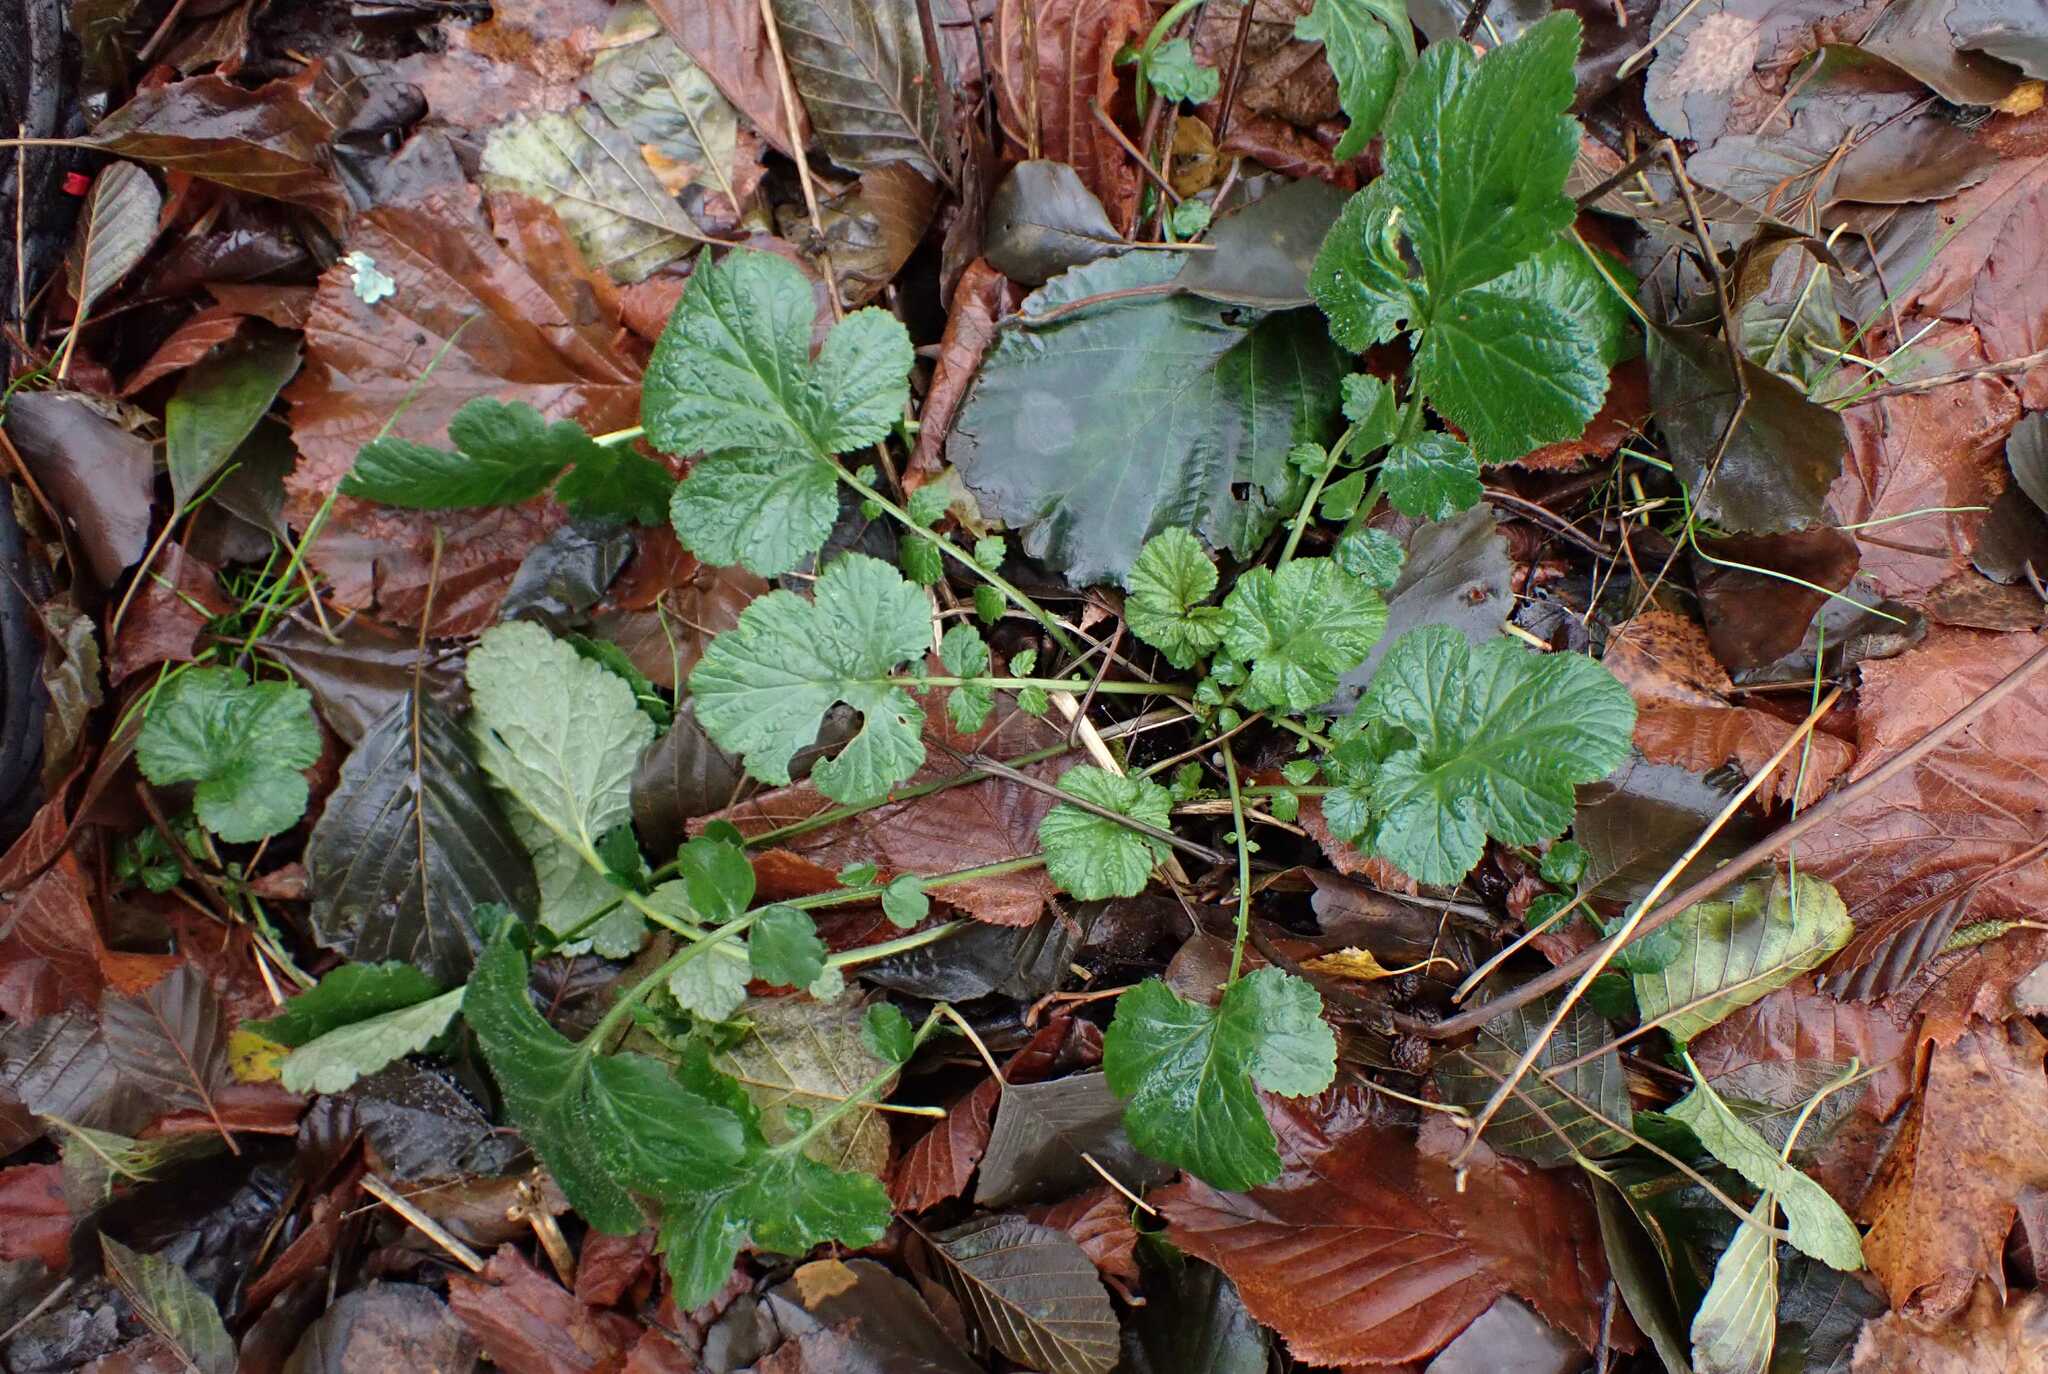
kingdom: Plantae
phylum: Tracheophyta
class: Magnoliopsida
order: Rosales
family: Rosaceae
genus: Geum
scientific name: Geum urbanum
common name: Wood avens
